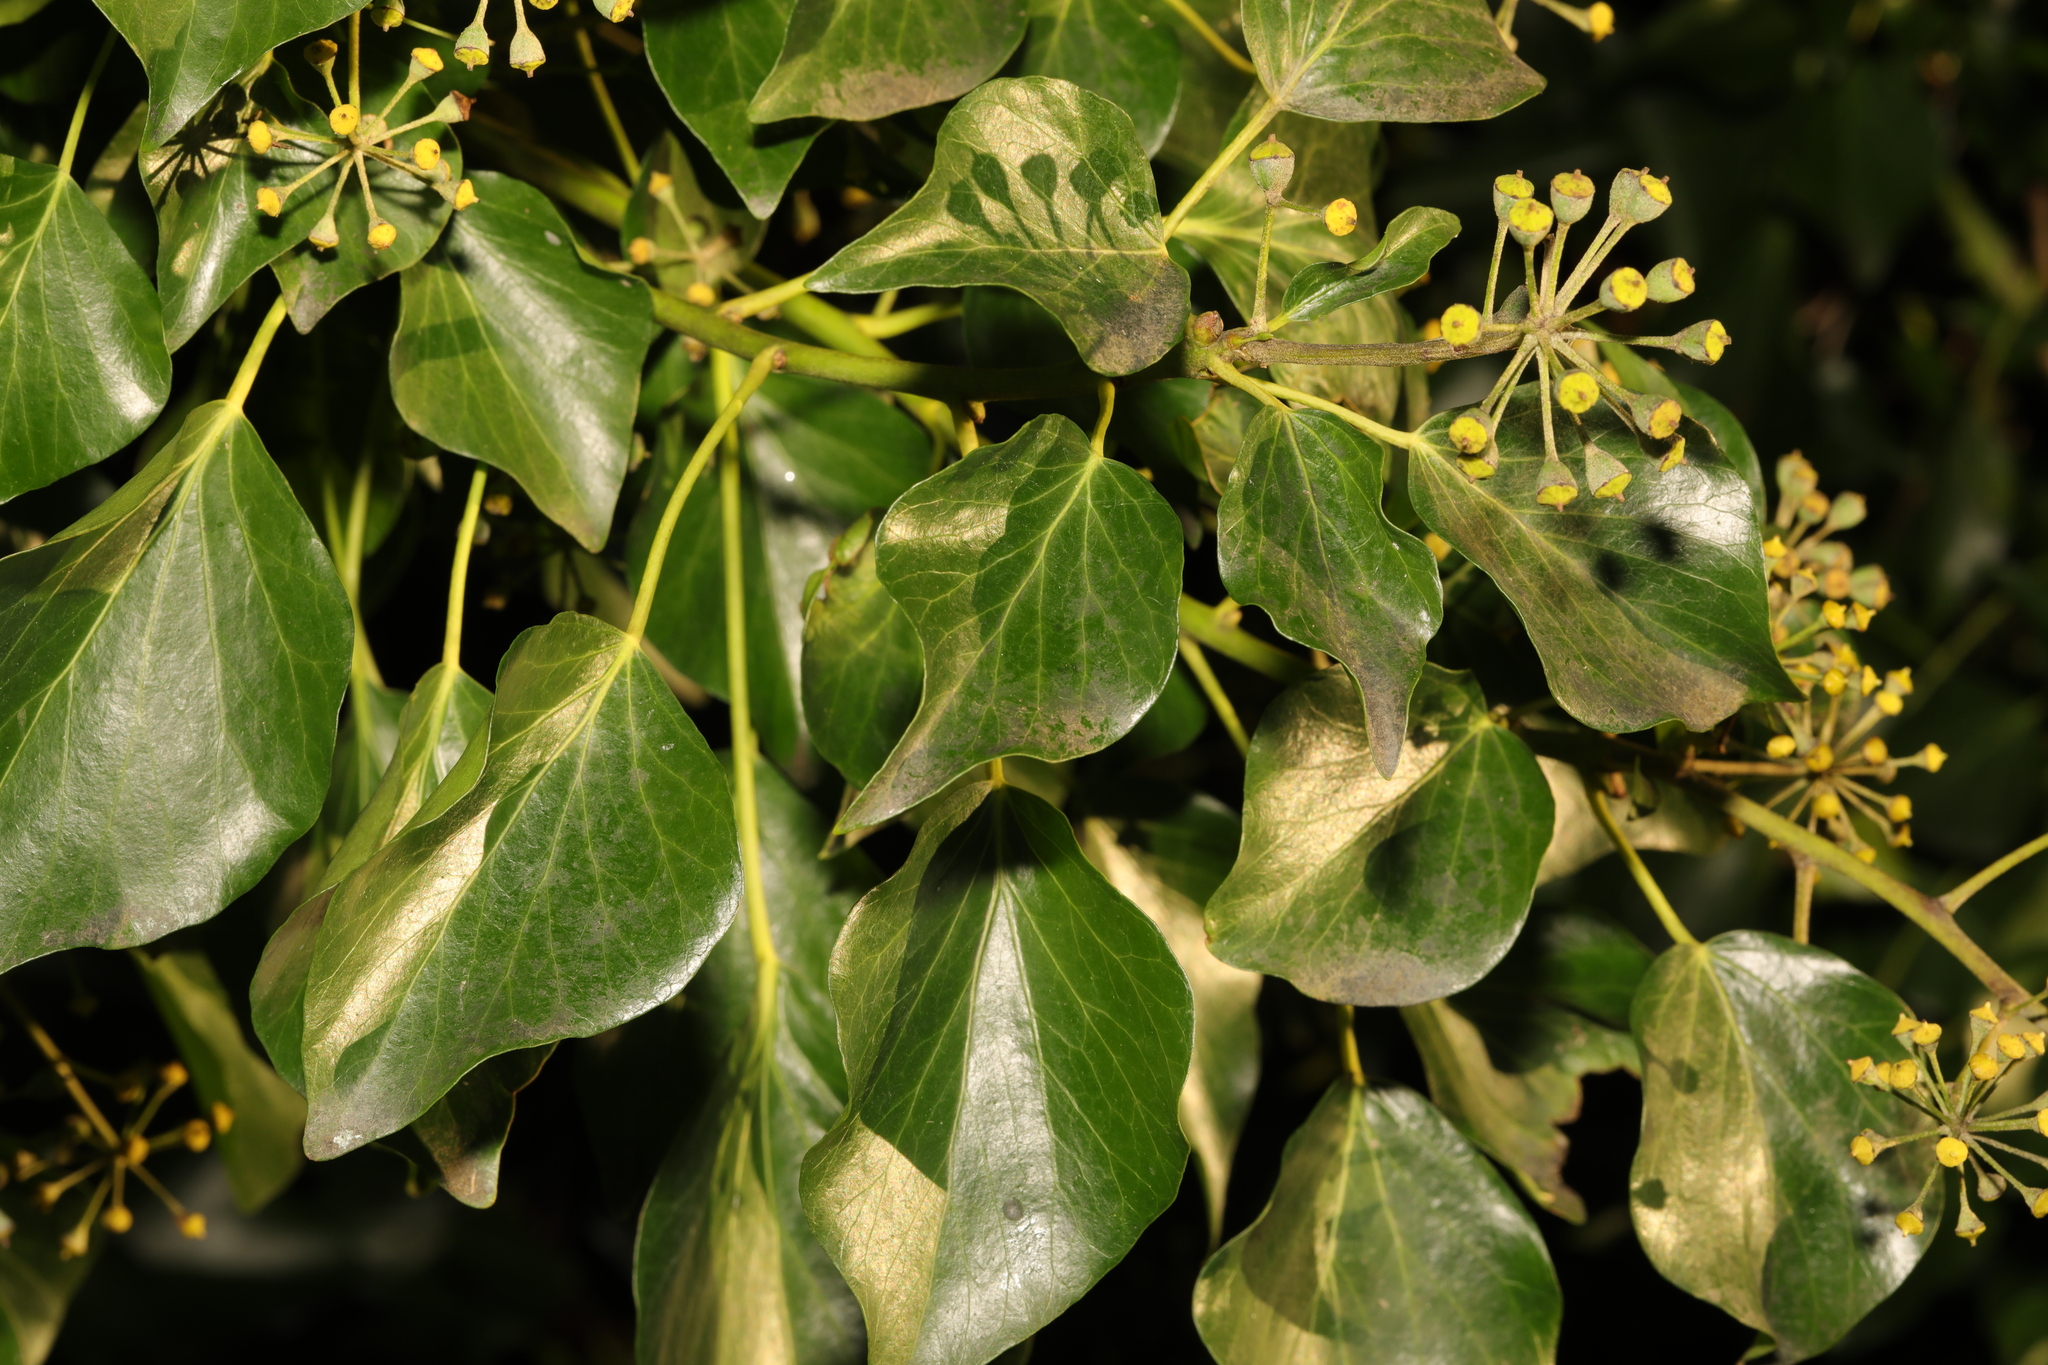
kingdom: Plantae
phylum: Tracheophyta
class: Magnoliopsida
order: Apiales
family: Araliaceae
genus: Hedera
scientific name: Hedera helix
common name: Ivy
